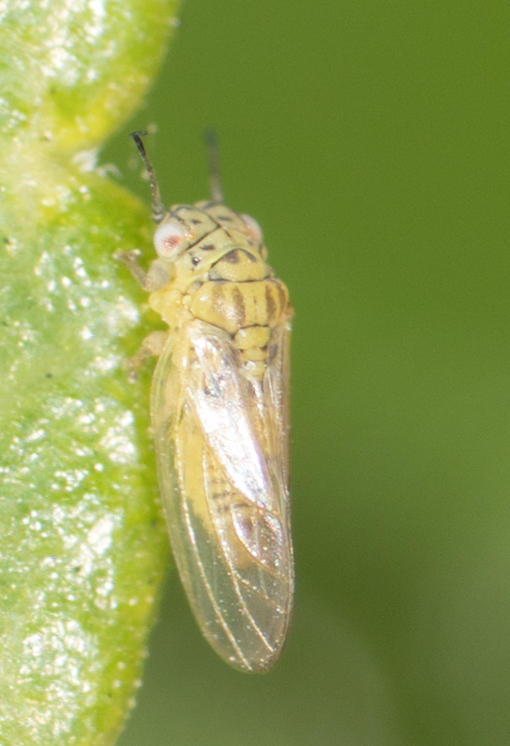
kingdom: Animalia
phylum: Arthropoda
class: Insecta
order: Hemiptera
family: Aphalaridae
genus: Blastopsylla
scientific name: Blastopsylla occidentalis
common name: Reg gum lerp psyllid
